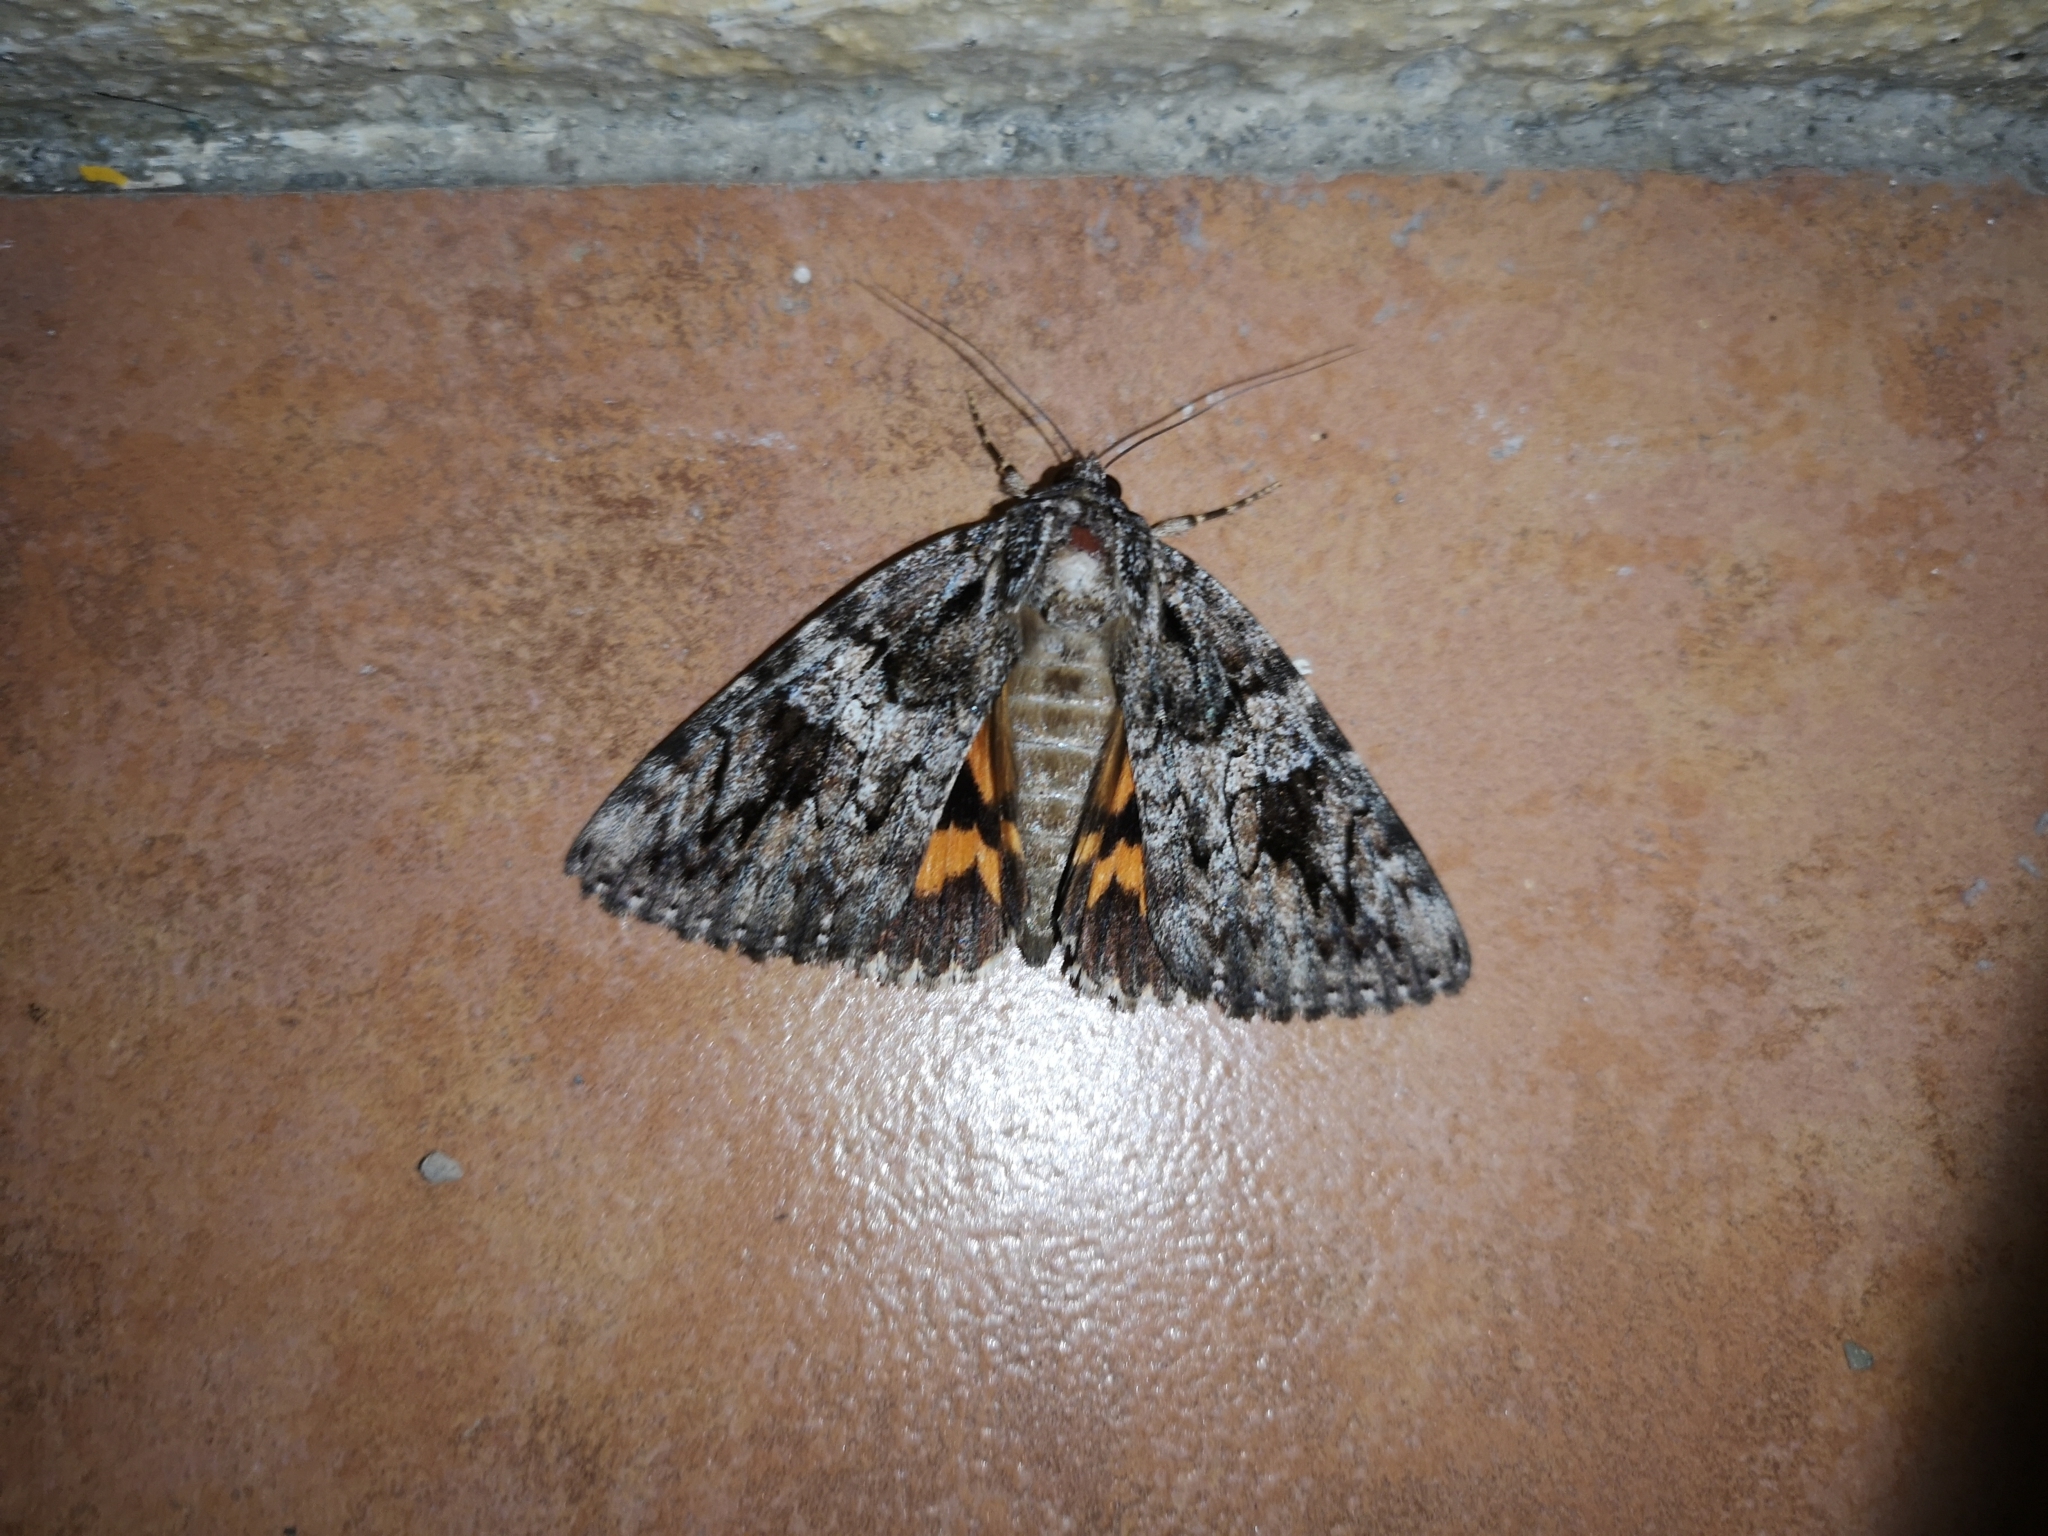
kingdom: Animalia
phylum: Arthropoda
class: Insecta
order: Lepidoptera
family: Erebidae
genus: Catocala
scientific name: Catocala ilia
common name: Ilia underwing
